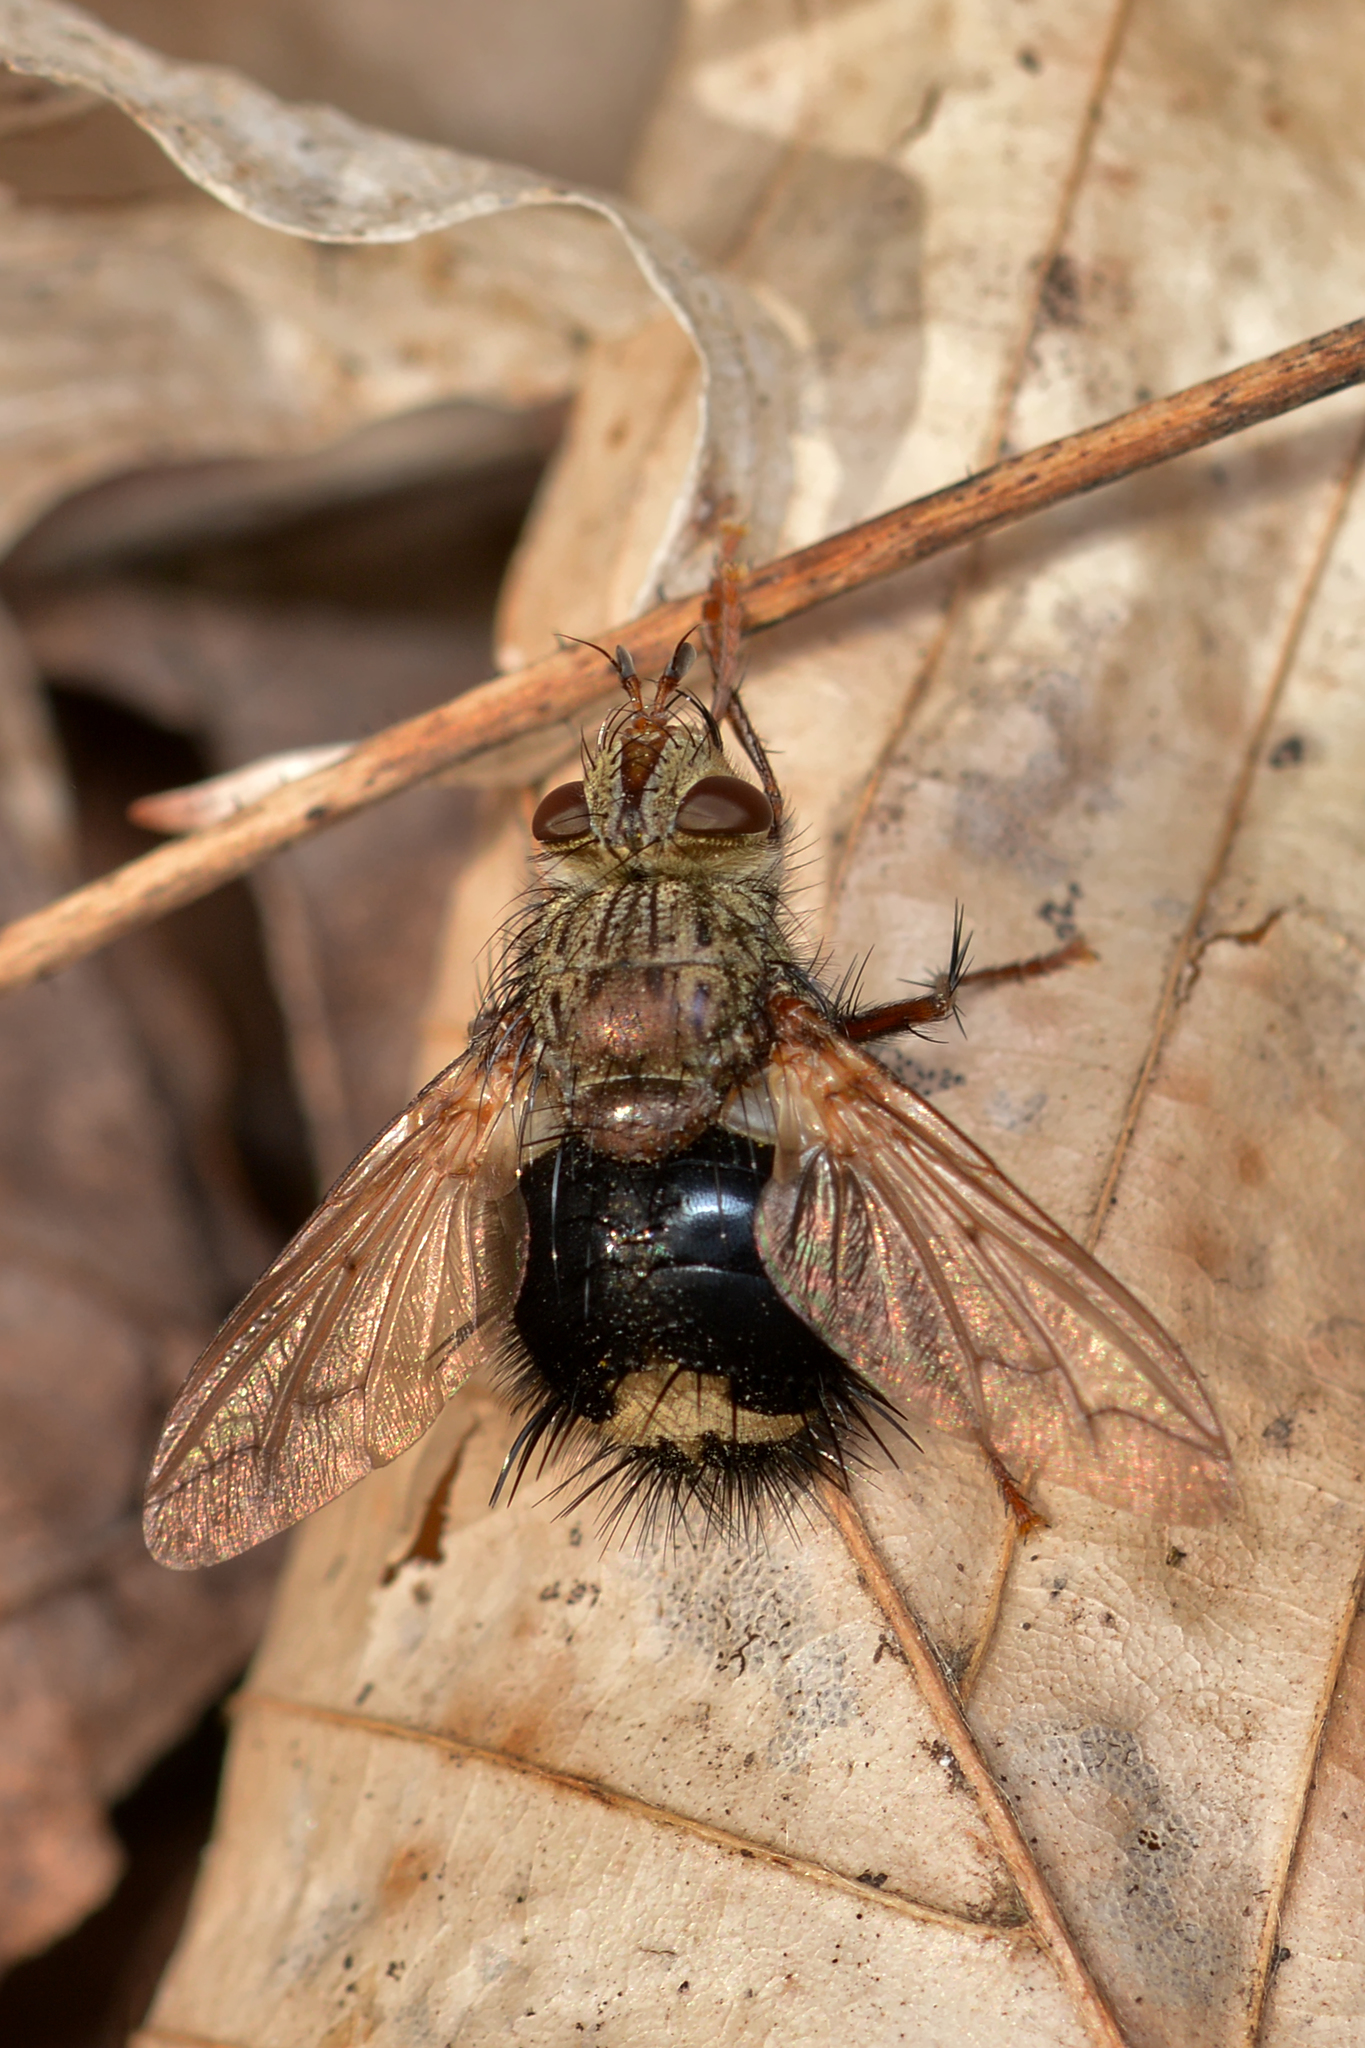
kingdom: Animalia
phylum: Arthropoda
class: Insecta
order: Diptera
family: Tachinidae
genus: Epalpus
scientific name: Epalpus signifer
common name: Early tachinid fly
